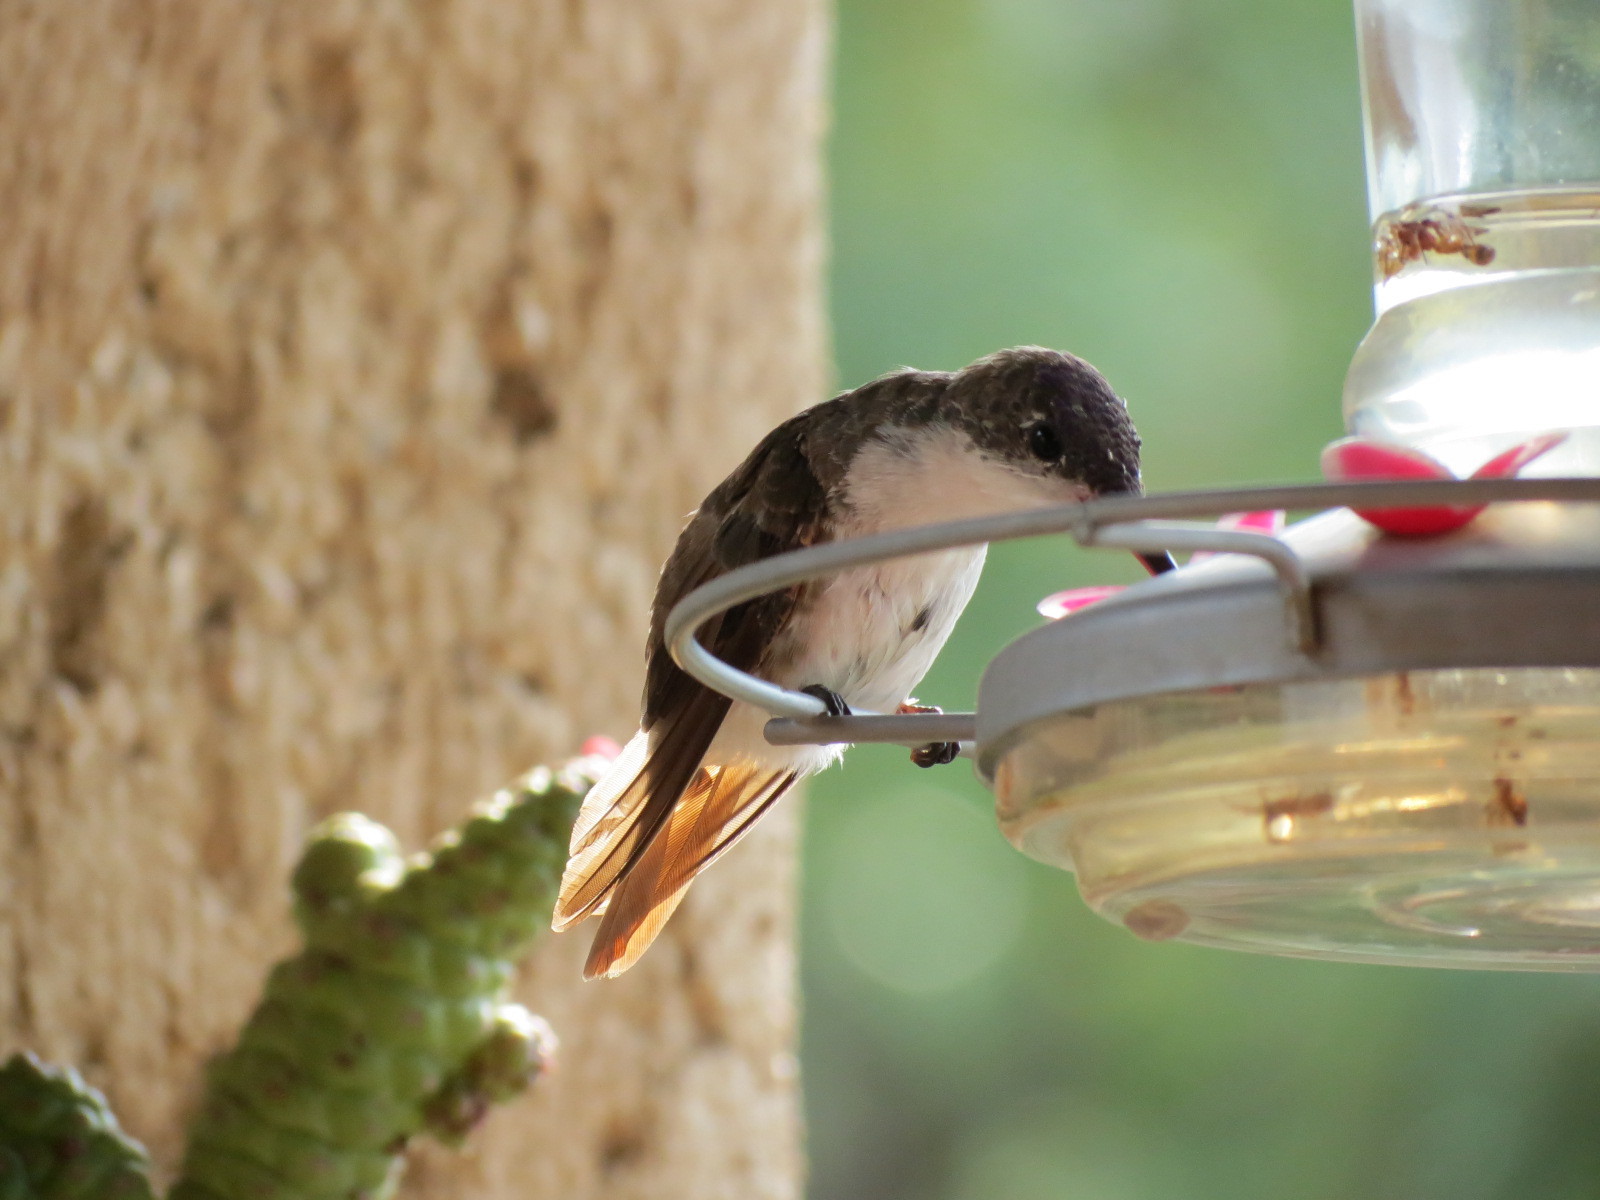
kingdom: Animalia
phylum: Chordata
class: Aves
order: Apodiformes
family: Trochilidae
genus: Leucolia
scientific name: Leucolia violiceps
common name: Violet-crowned hummingbird
